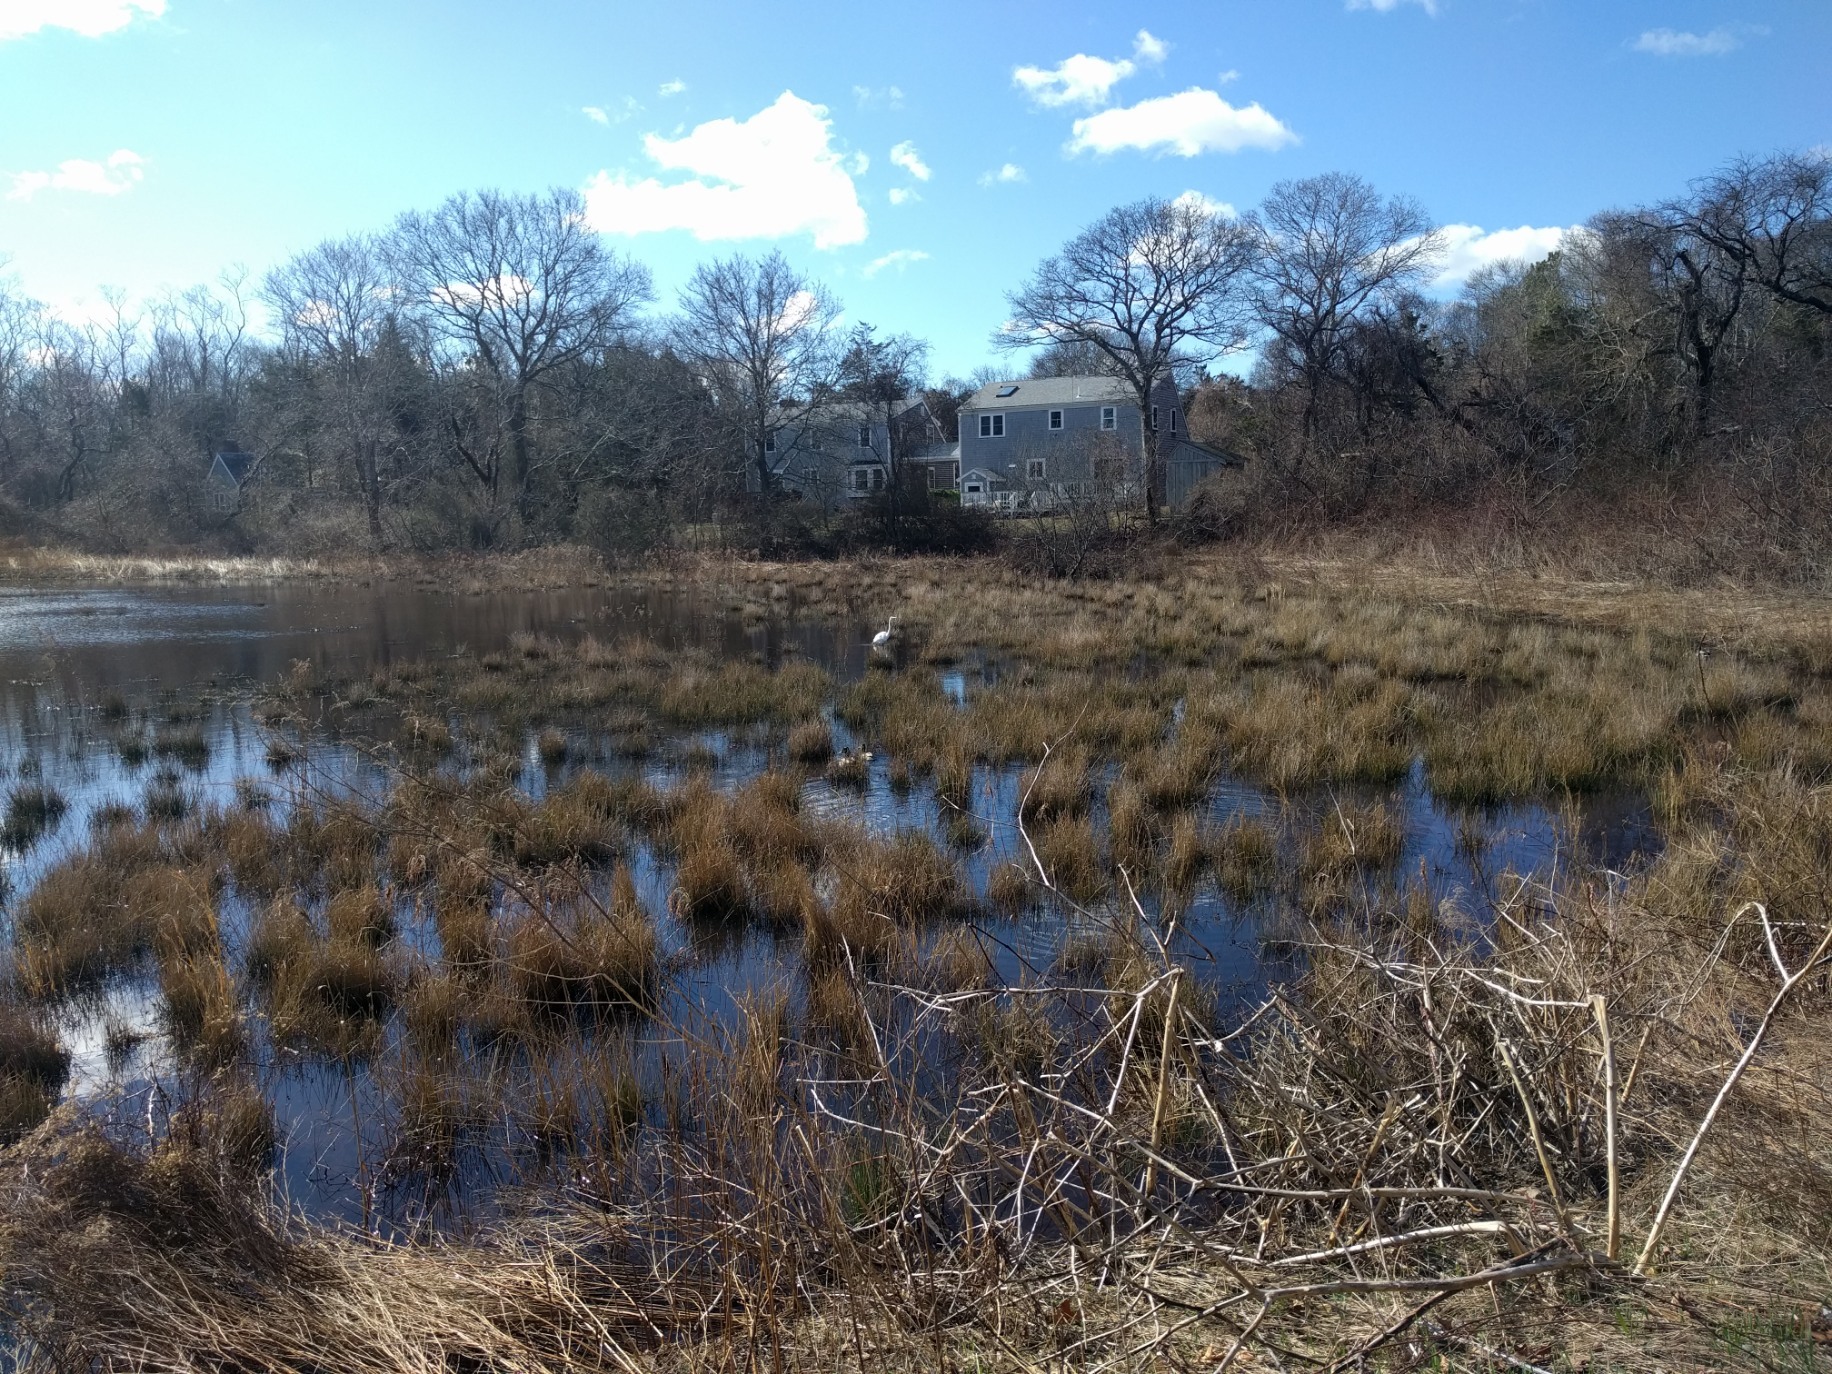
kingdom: Animalia
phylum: Chordata
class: Aves
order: Pelecaniformes
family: Ardeidae
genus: Ardea
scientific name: Ardea alba
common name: Great egret
